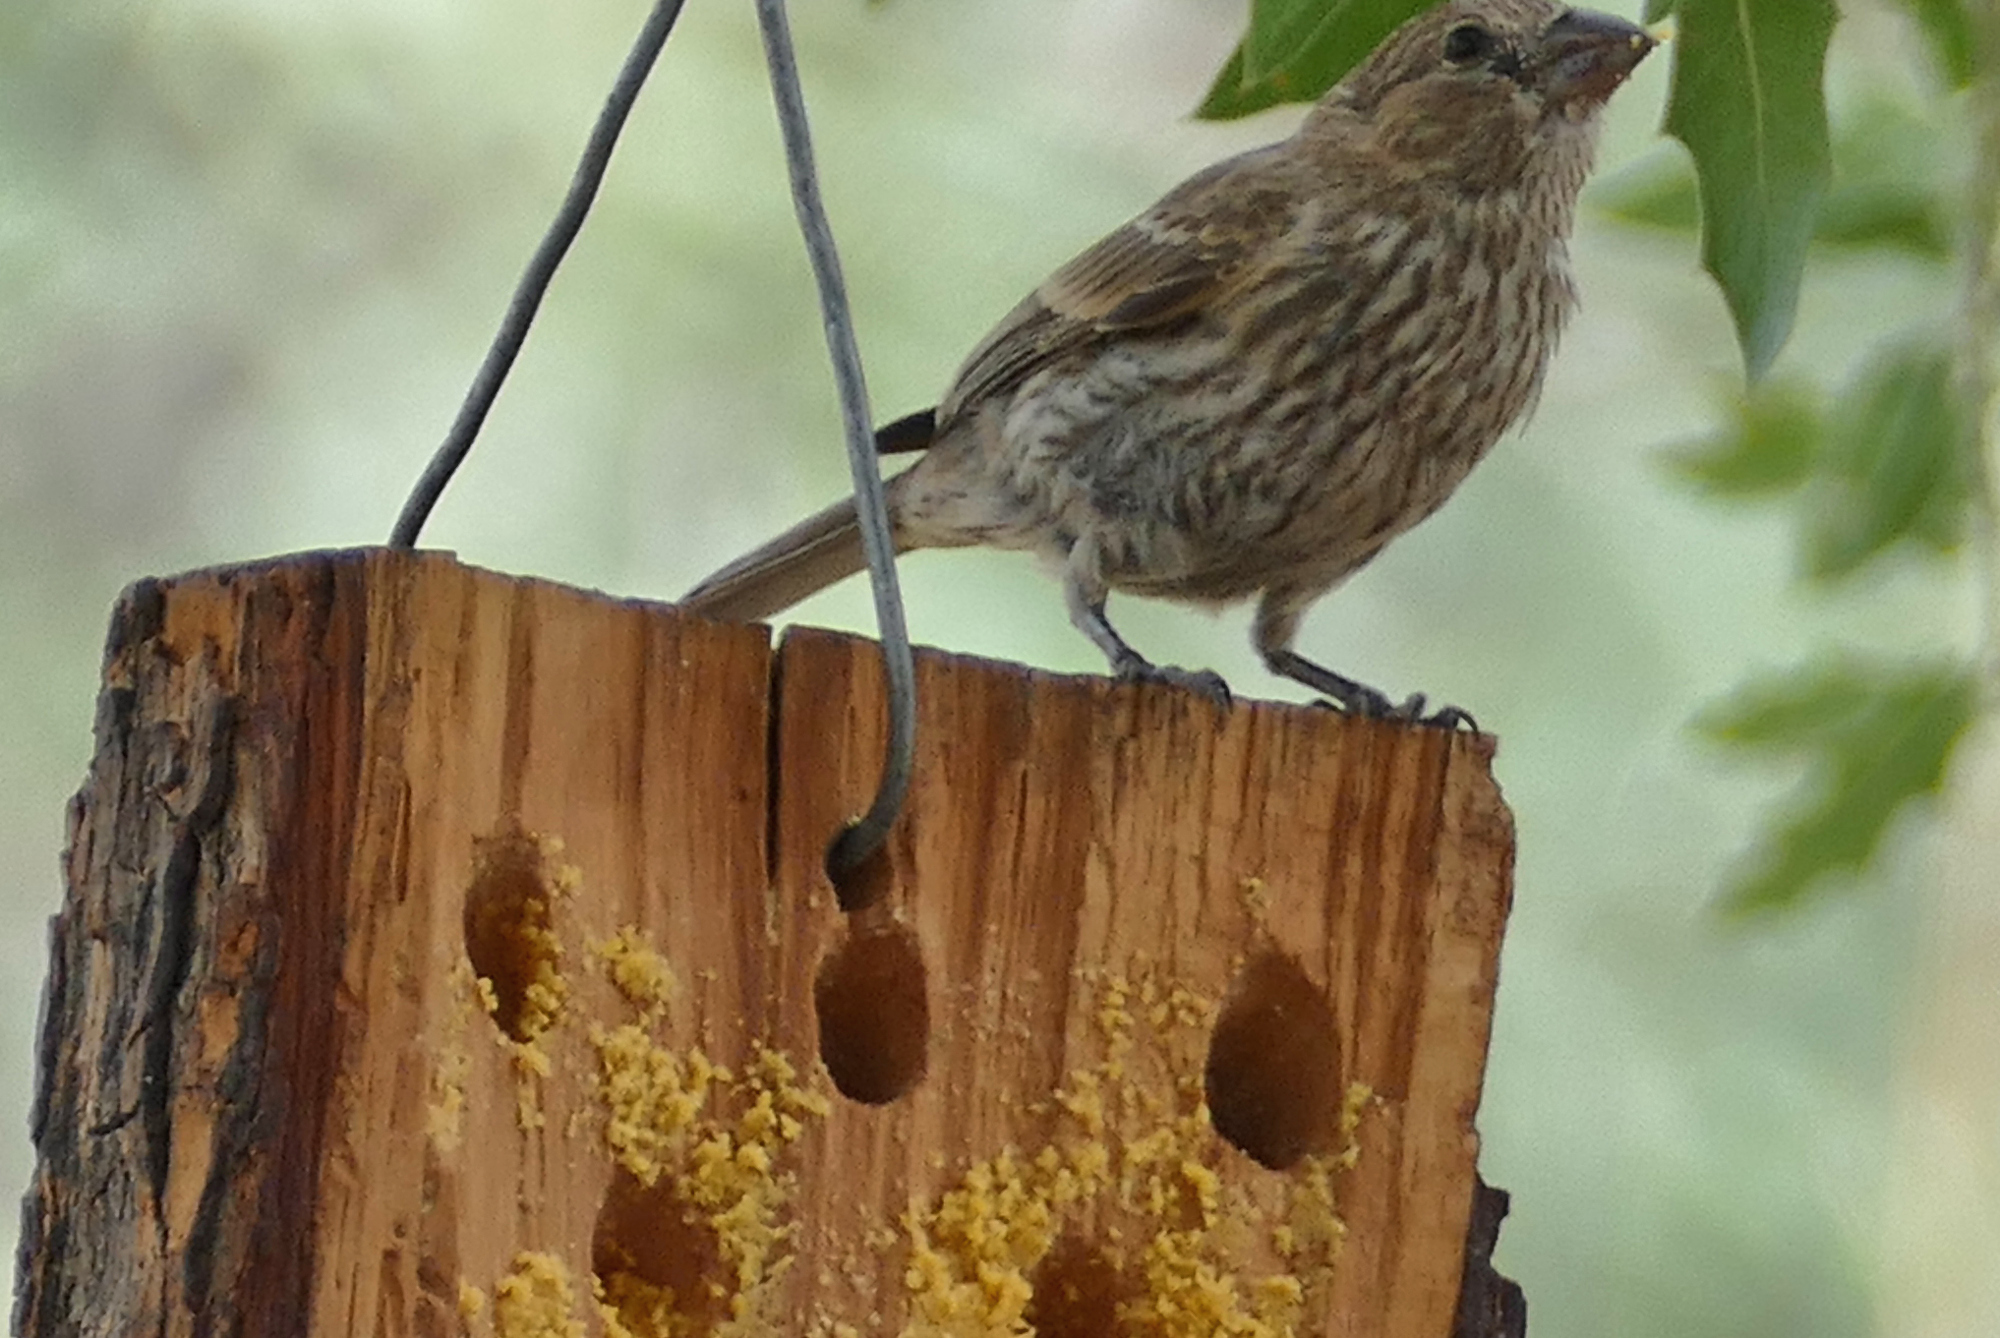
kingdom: Animalia
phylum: Chordata
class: Aves
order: Passeriformes
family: Fringillidae
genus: Haemorhous
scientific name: Haemorhous mexicanus
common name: House finch
